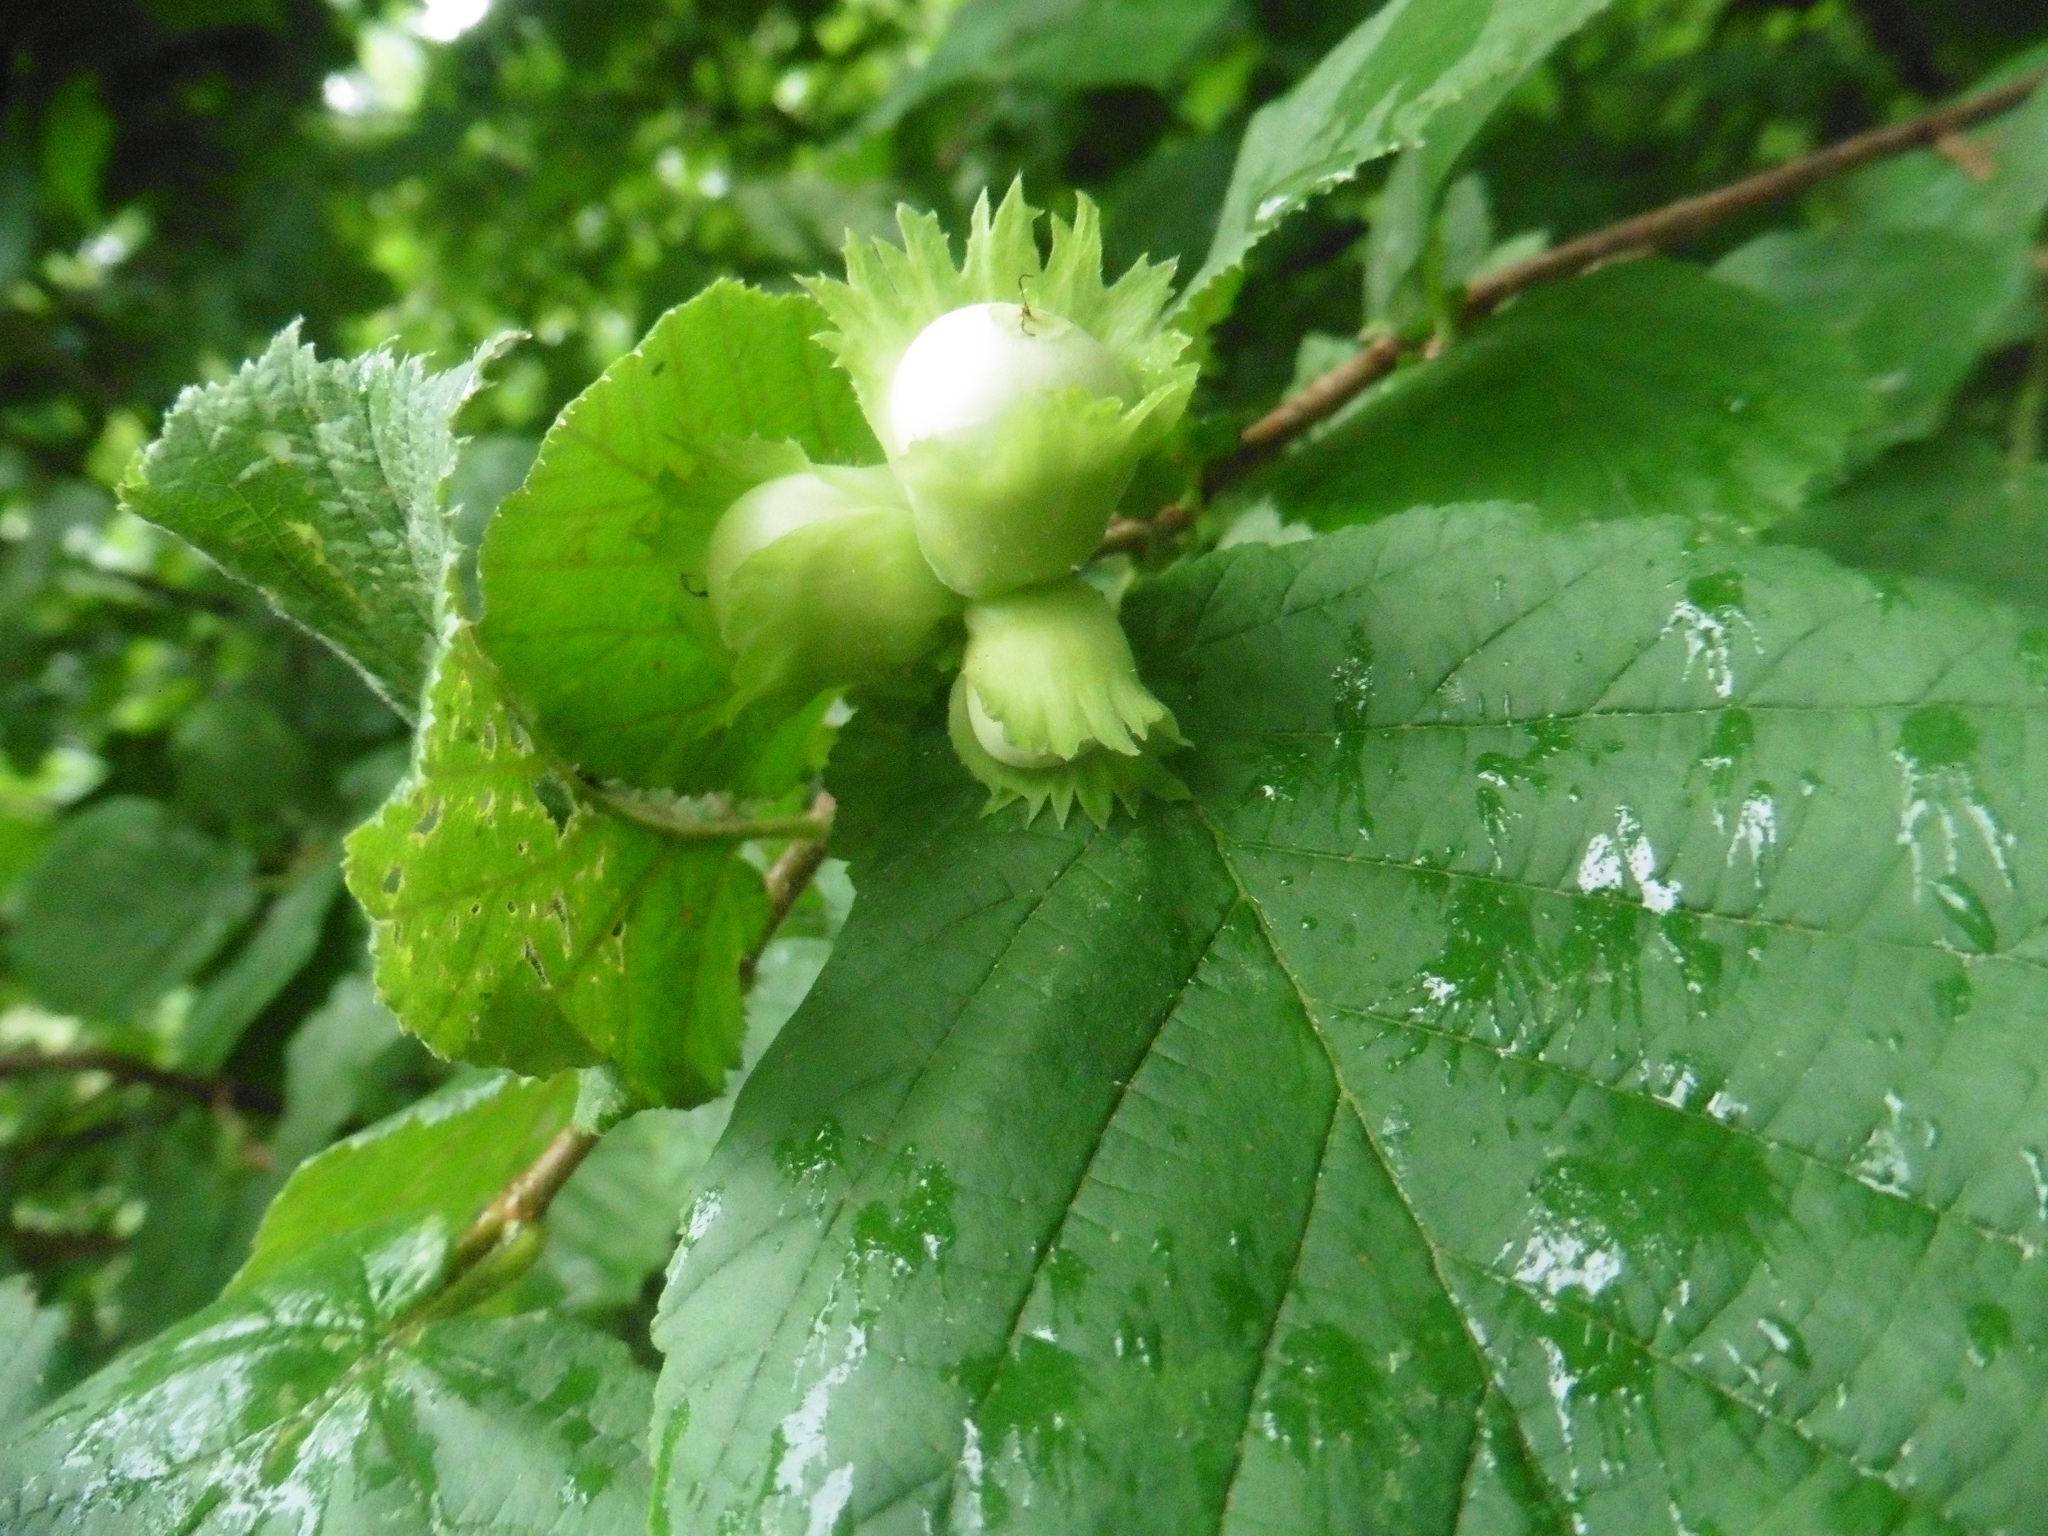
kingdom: Plantae
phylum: Tracheophyta
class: Magnoliopsida
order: Fagales
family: Betulaceae
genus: Corylus
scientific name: Corylus avellana
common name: European hazel
